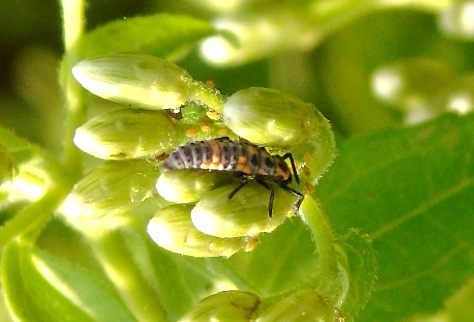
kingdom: Animalia
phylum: Arthropoda
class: Insecta
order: Coleoptera
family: Coccinellidae
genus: Coccinellina
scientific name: Coccinellina
